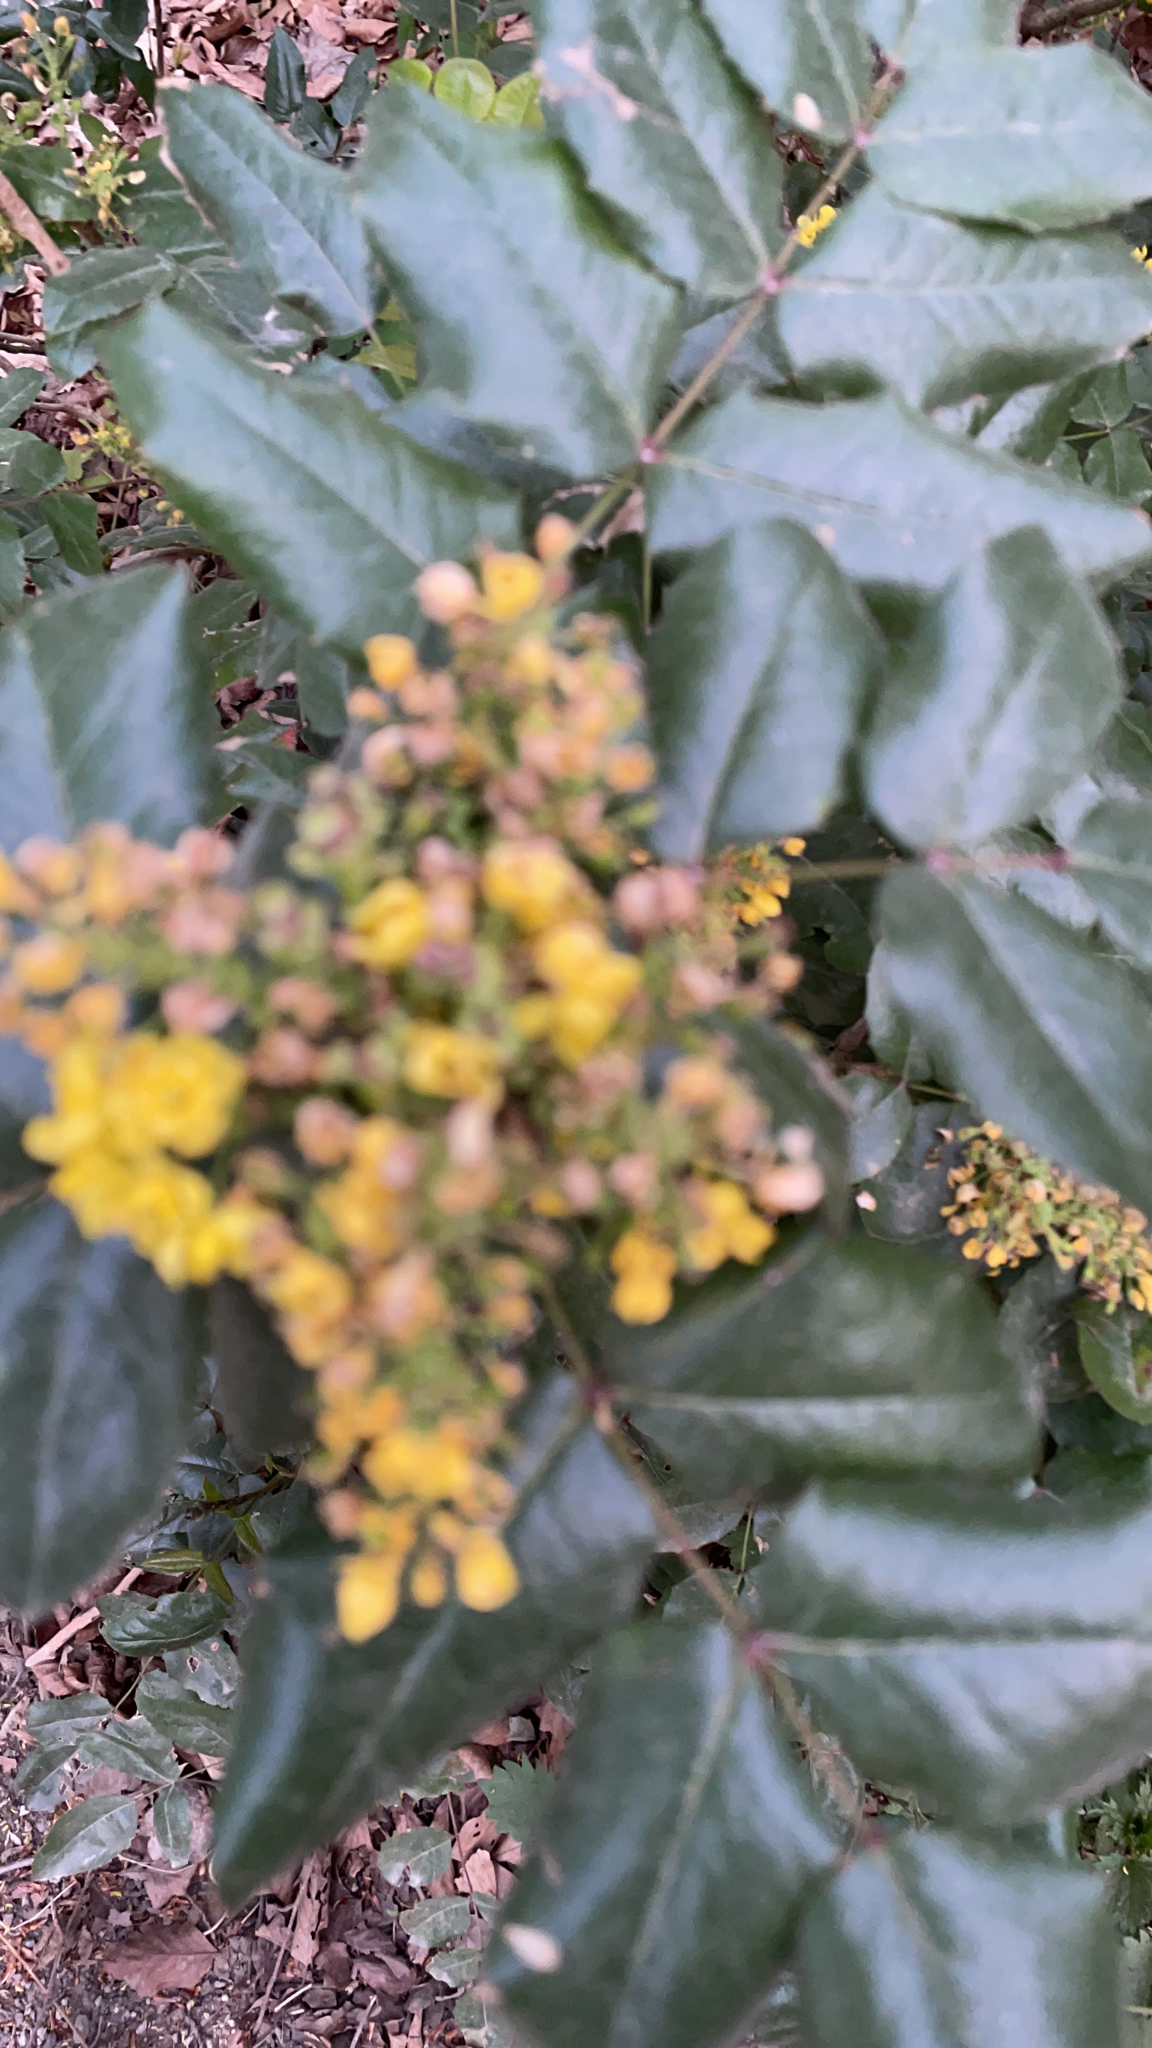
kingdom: Plantae
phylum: Tracheophyta
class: Magnoliopsida
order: Ranunculales
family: Berberidaceae
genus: Mahonia
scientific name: Mahonia aquifolium
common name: Oregon-grape
